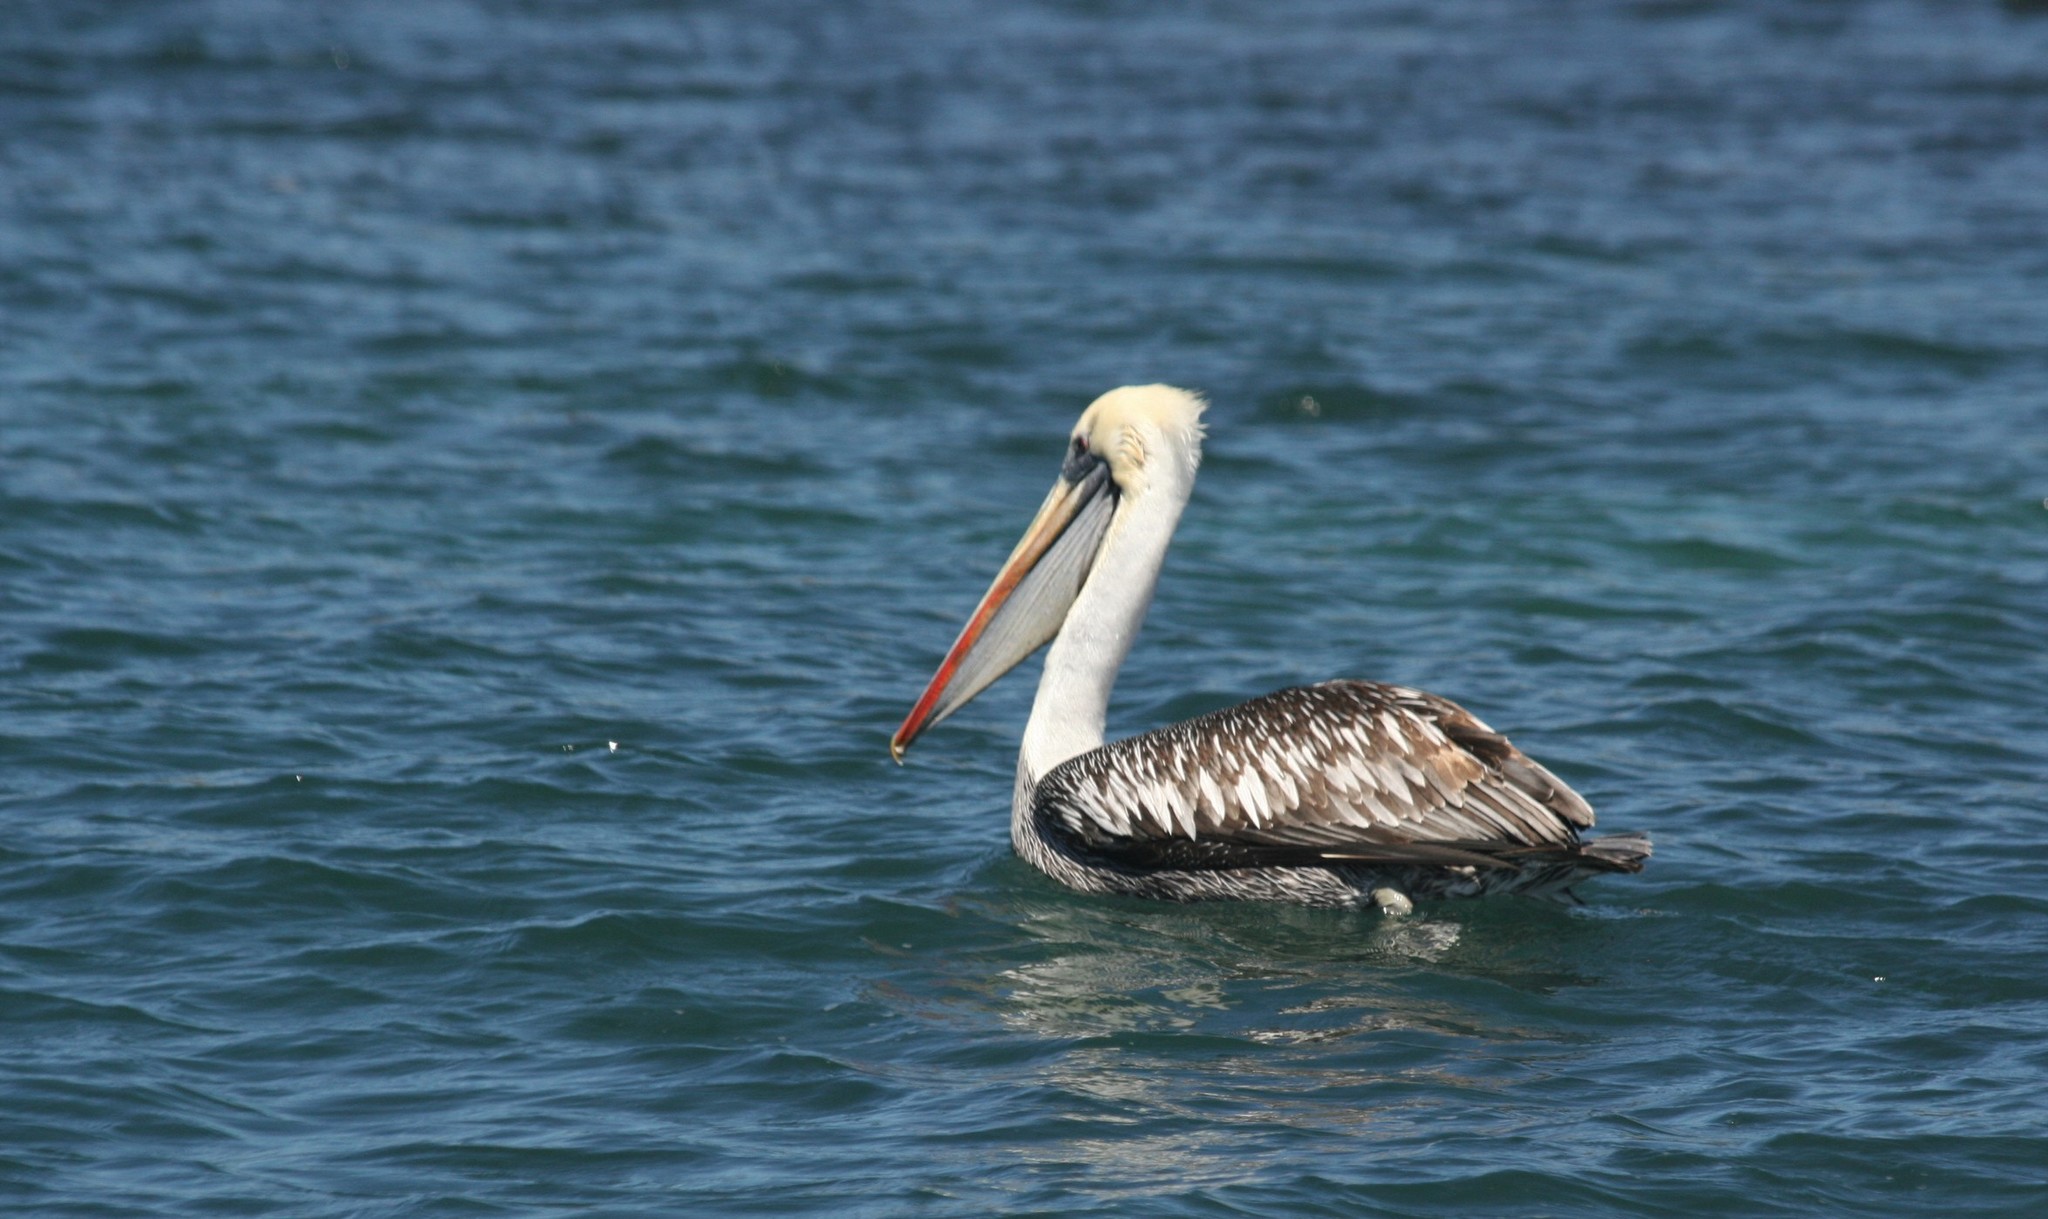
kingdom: Animalia
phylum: Chordata
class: Aves
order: Pelecaniformes
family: Pelecanidae
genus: Pelecanus
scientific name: Pelecanus thagus
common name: Peruvian pelican
